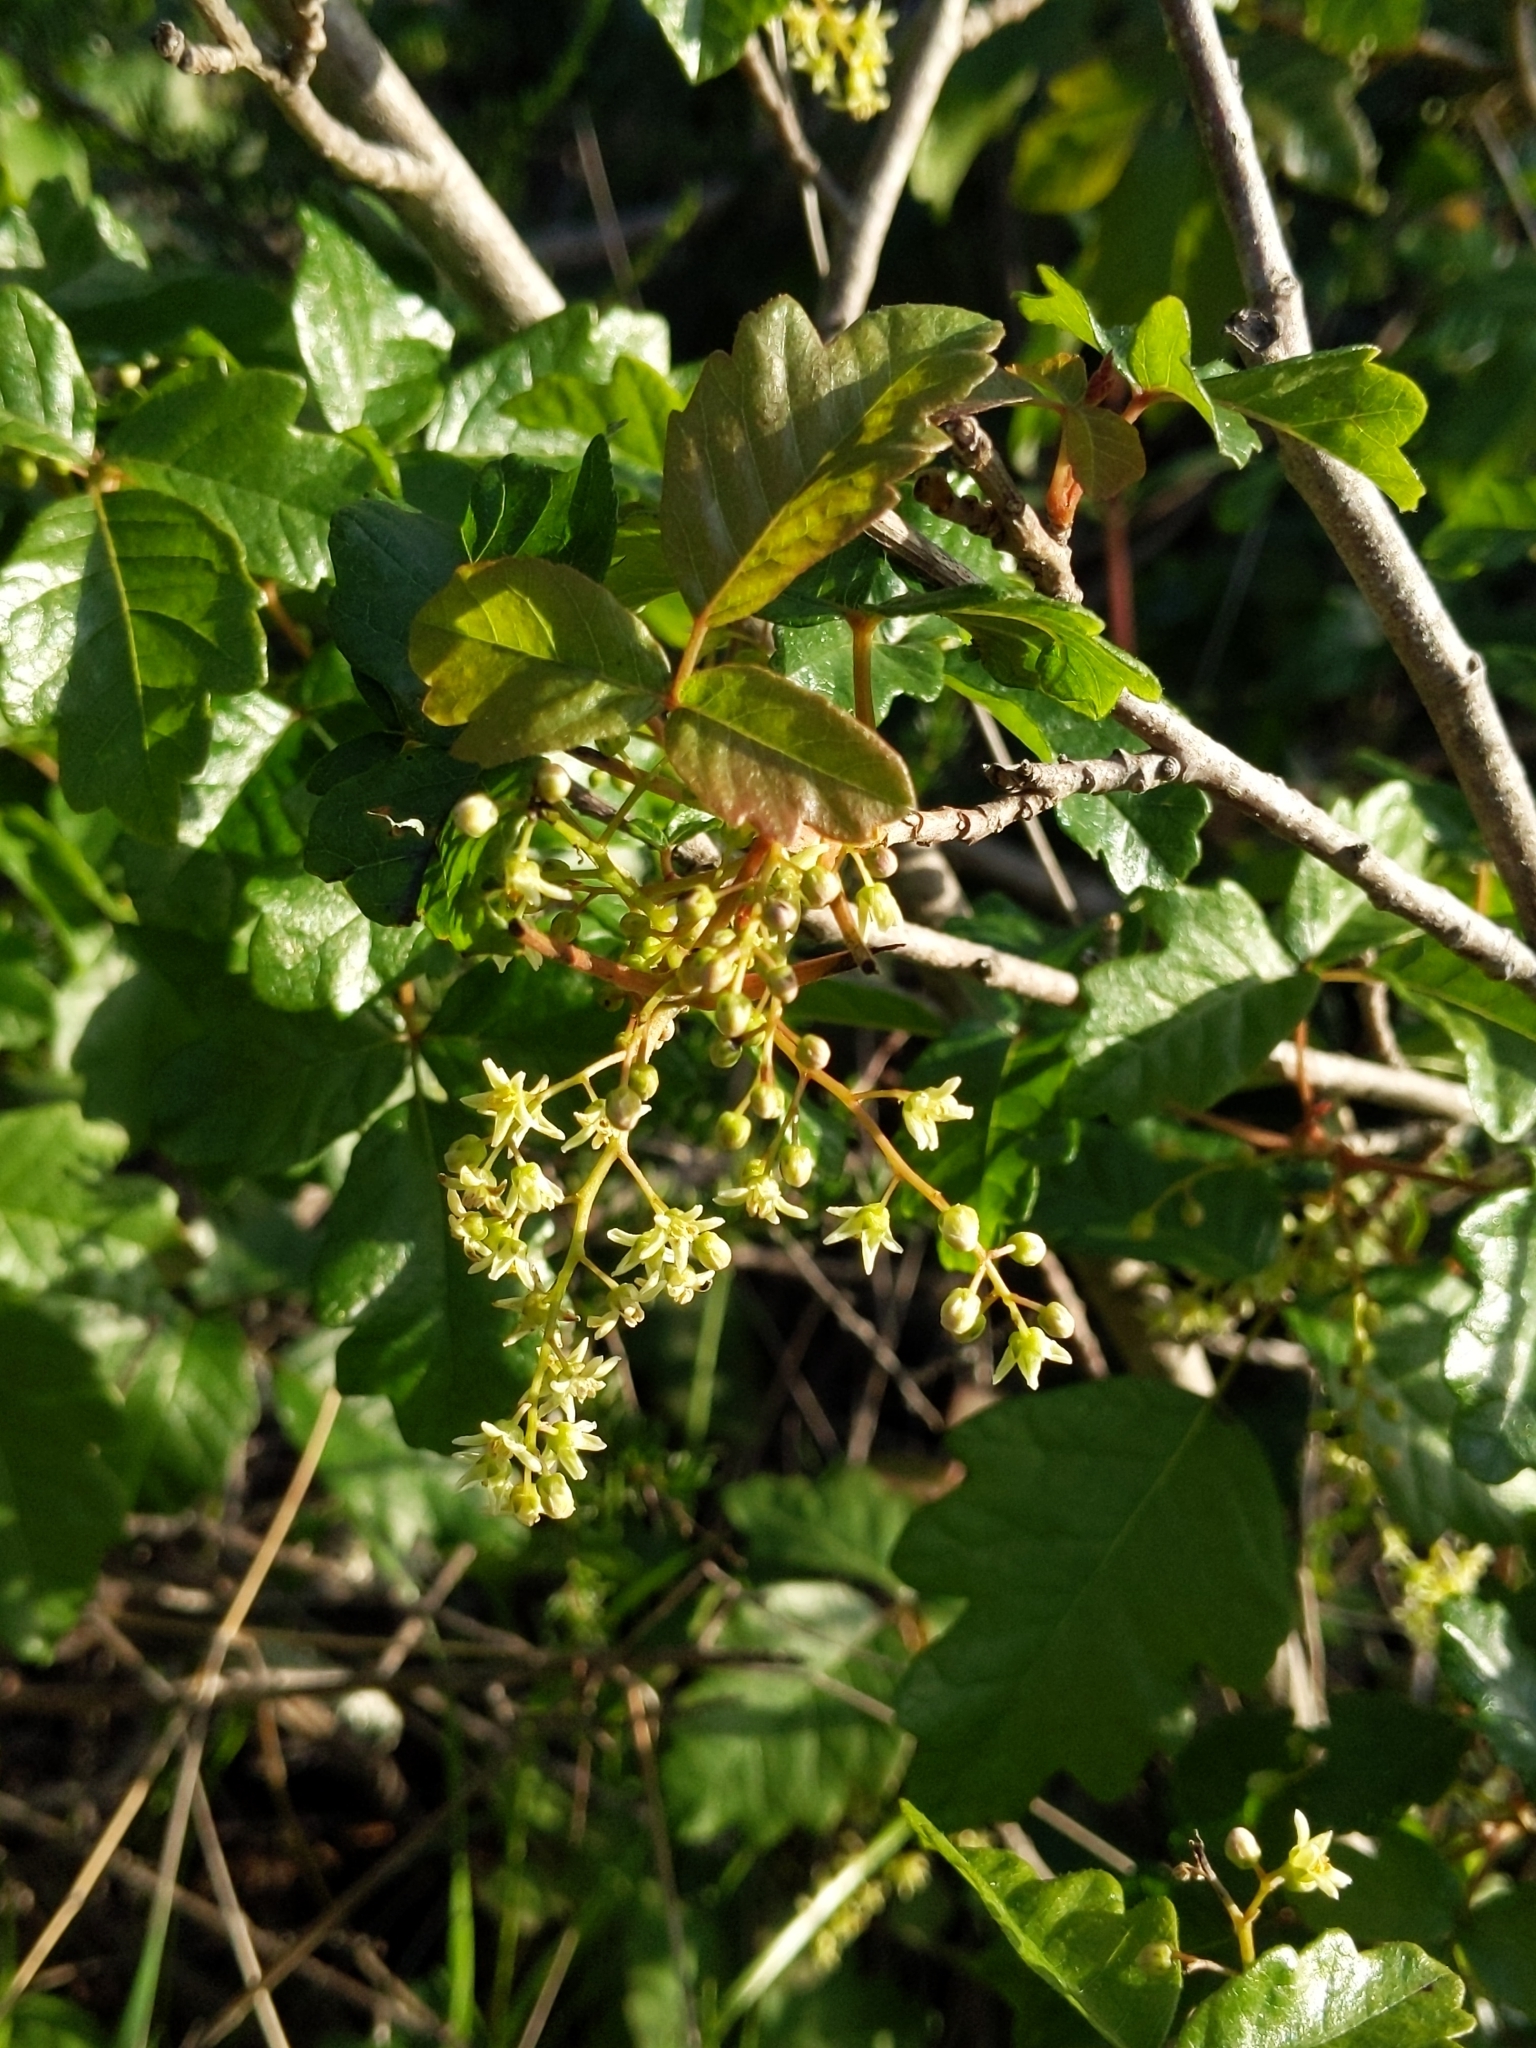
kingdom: Plantae
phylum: Tracheophyta
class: Magnoliopsida
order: Sapindales
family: Anacardiaceae
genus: Toxicodendron
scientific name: Toxicodendron diversilobum
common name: Pacific poison-oak
